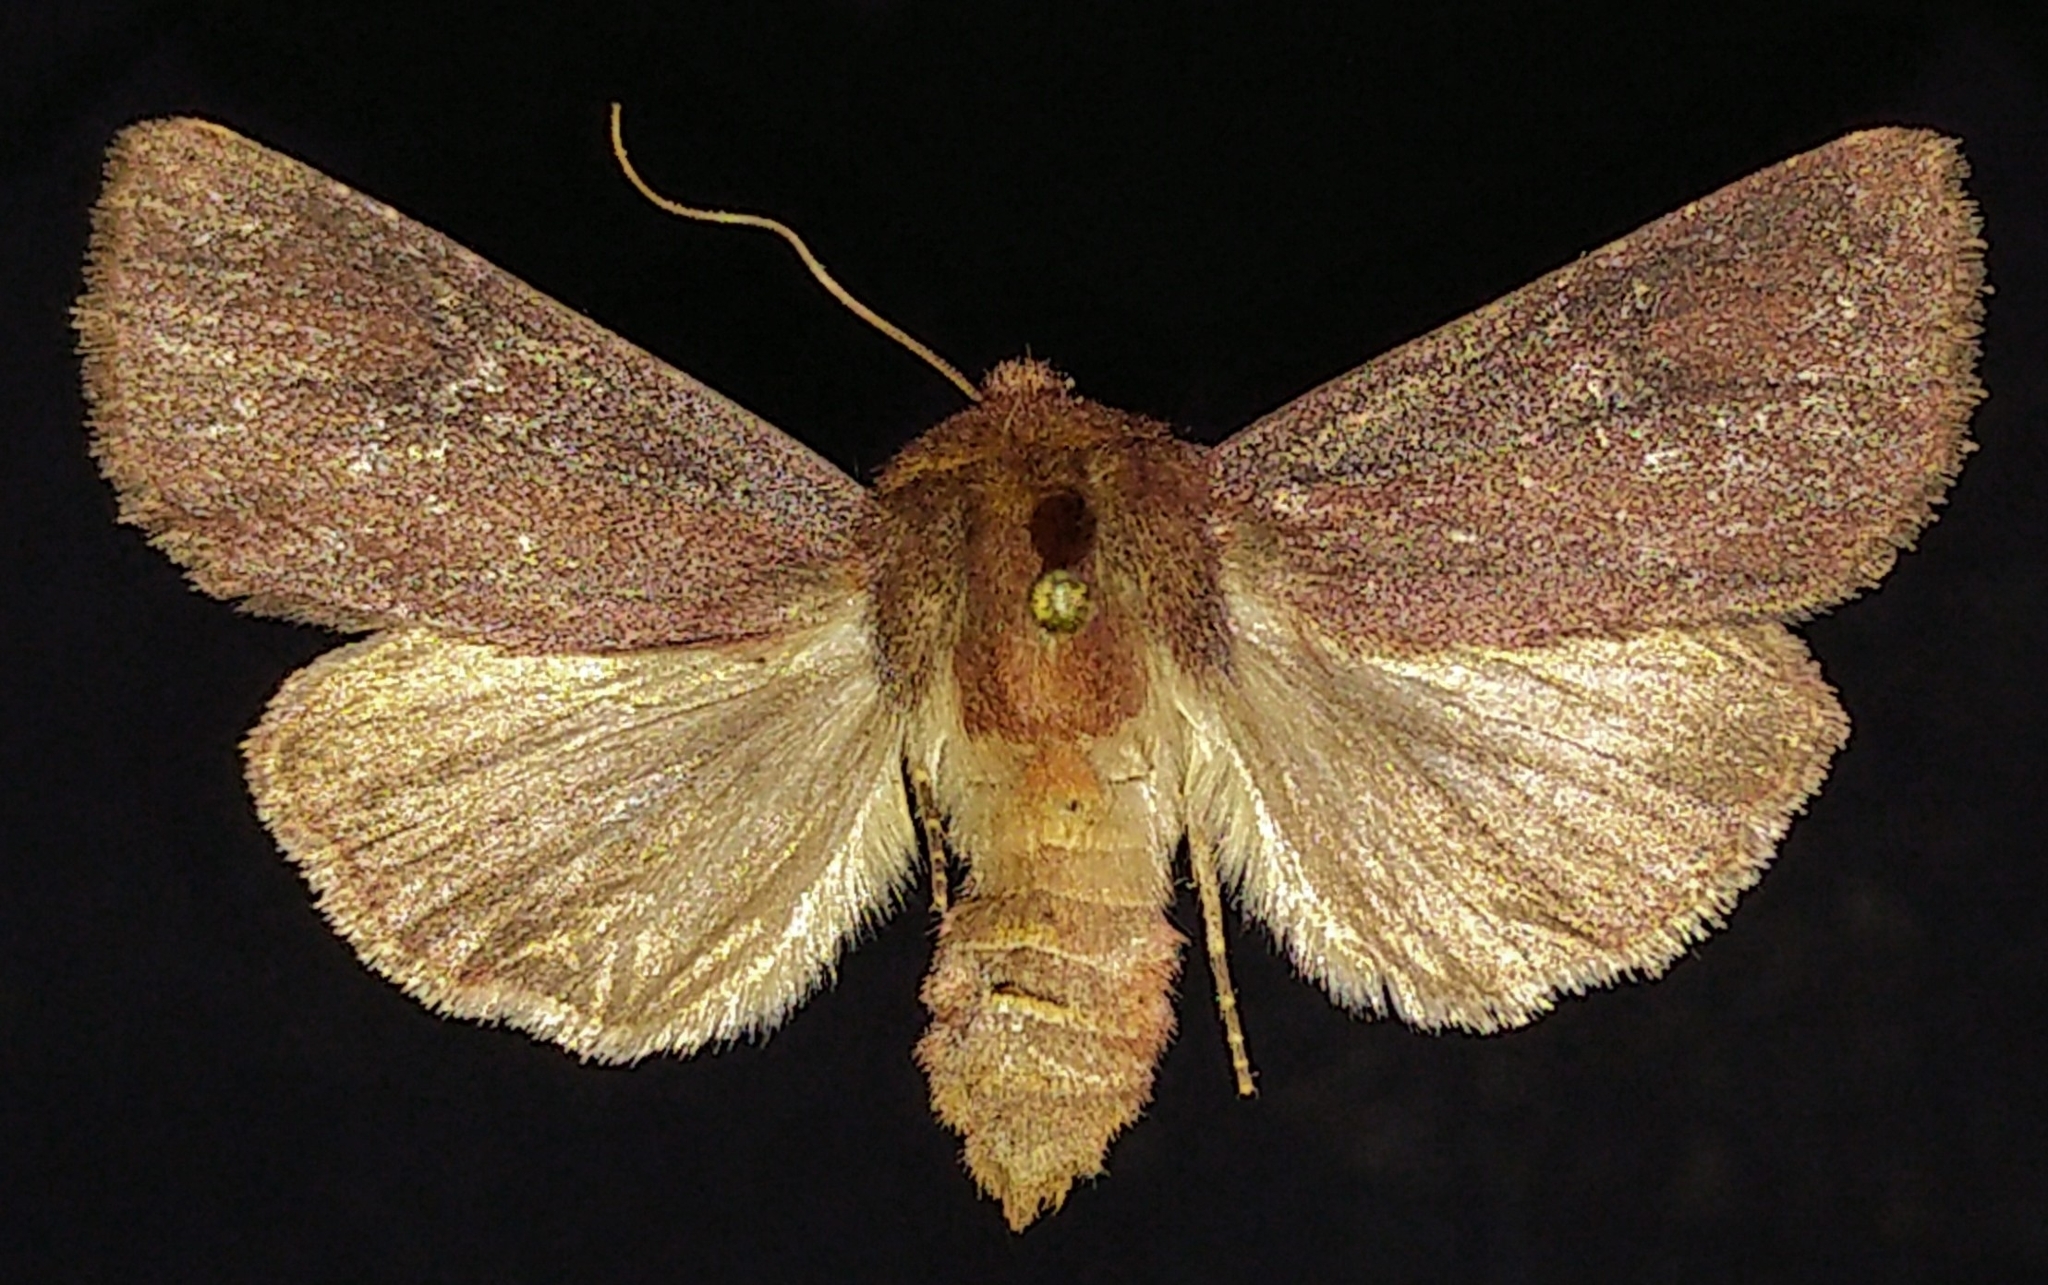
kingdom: Animalia
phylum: Arthropoda
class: Insecta
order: Lepidoptera
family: Noctuidae
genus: Sideridis
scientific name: Sideridis maryx
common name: Maroonwing moth
